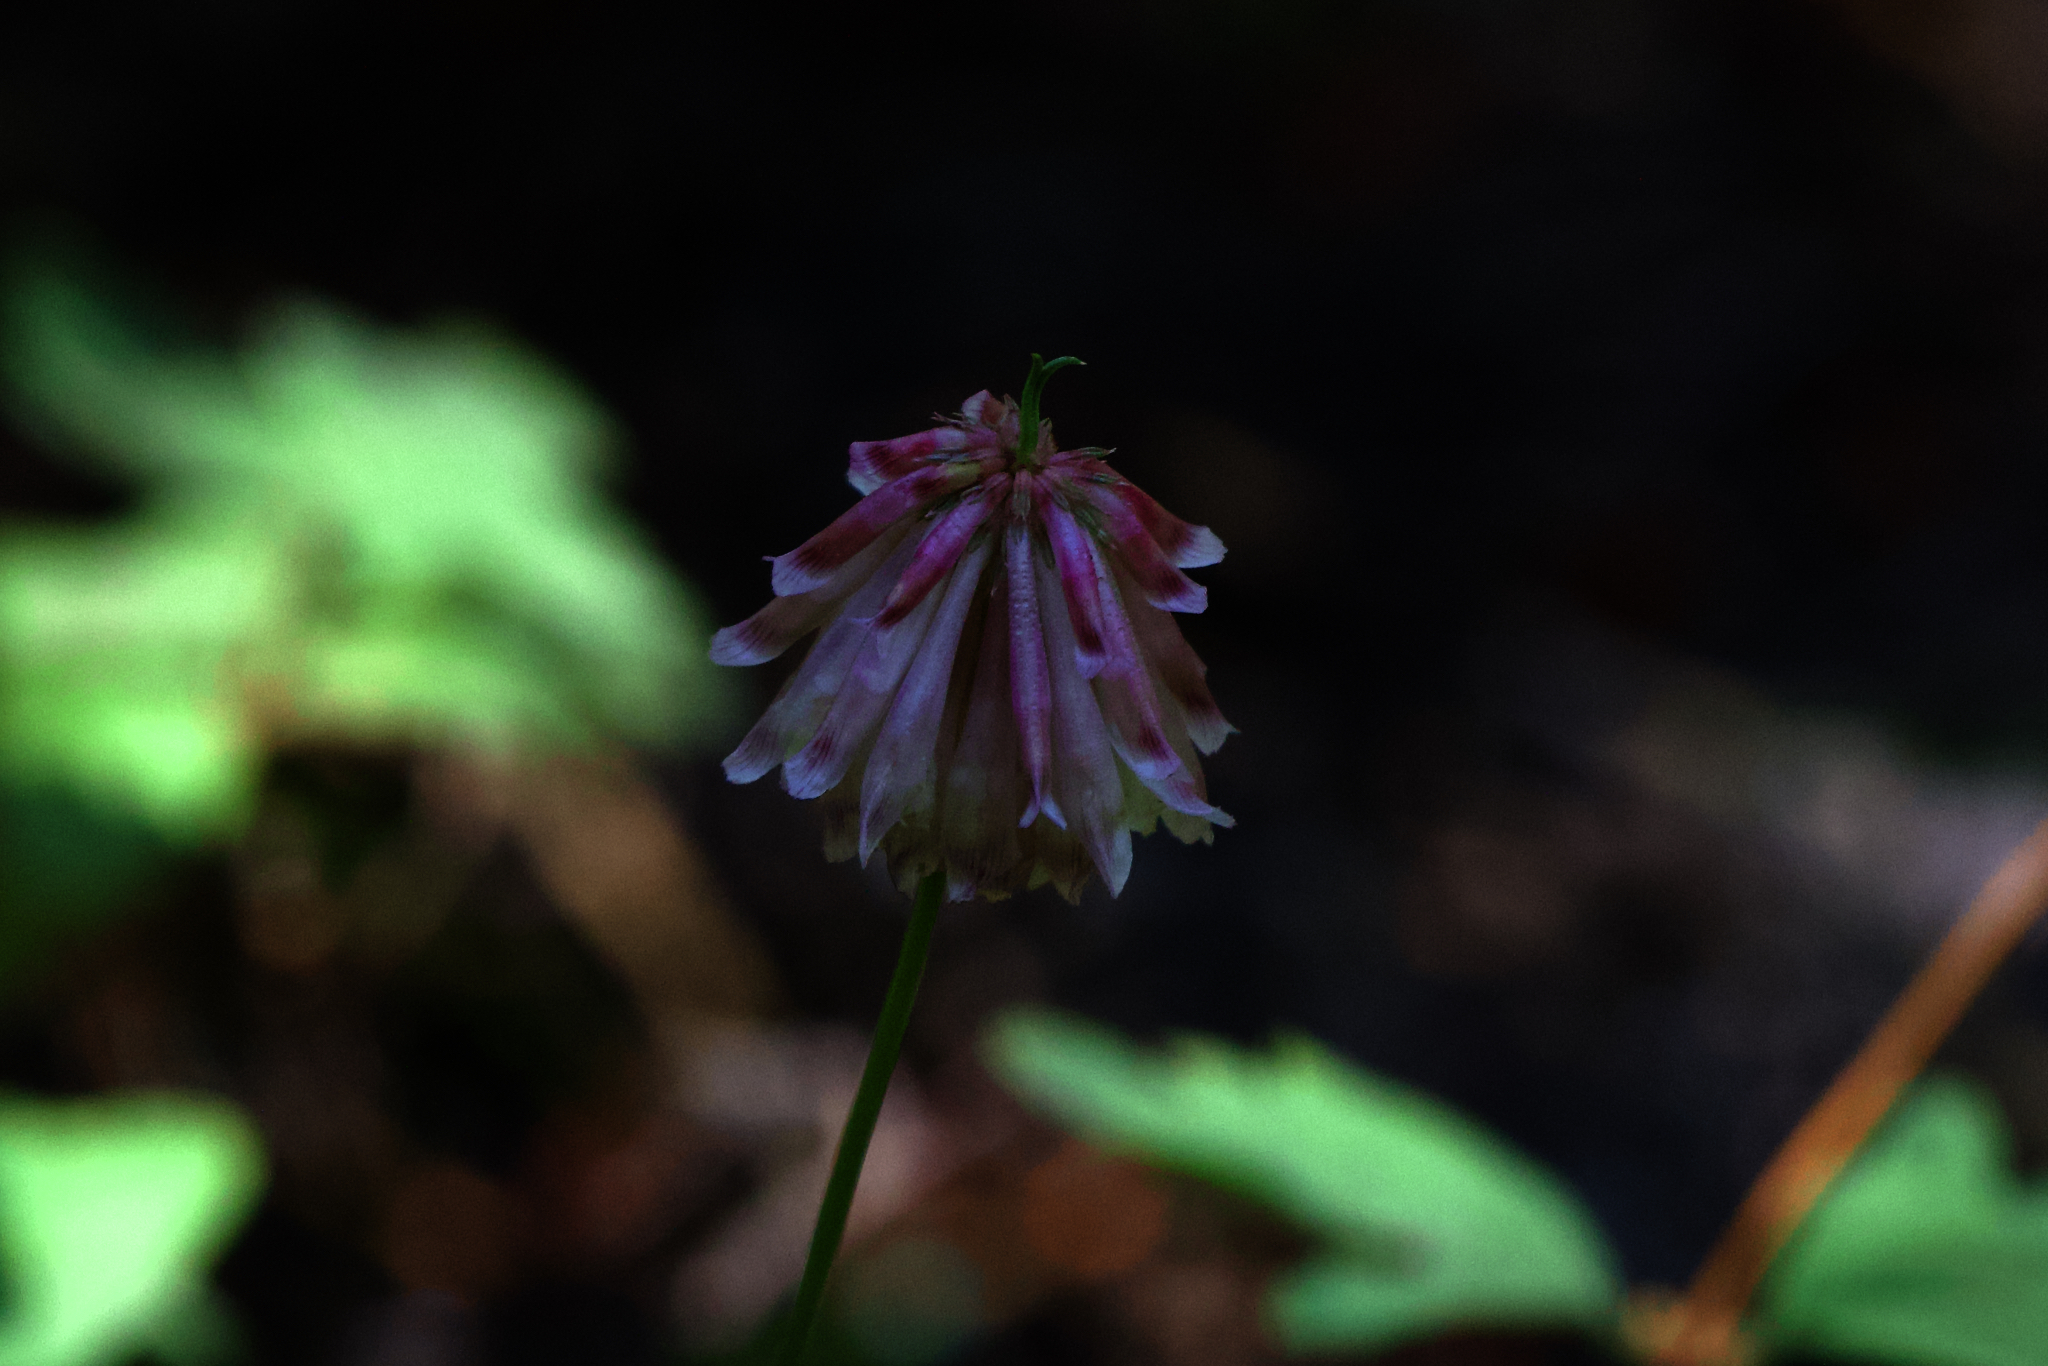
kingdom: Plantae
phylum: Tracheophyta
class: Magnoliopsida
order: Fabales
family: Fabaceae
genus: Trifolium
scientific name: Trifolium productum
